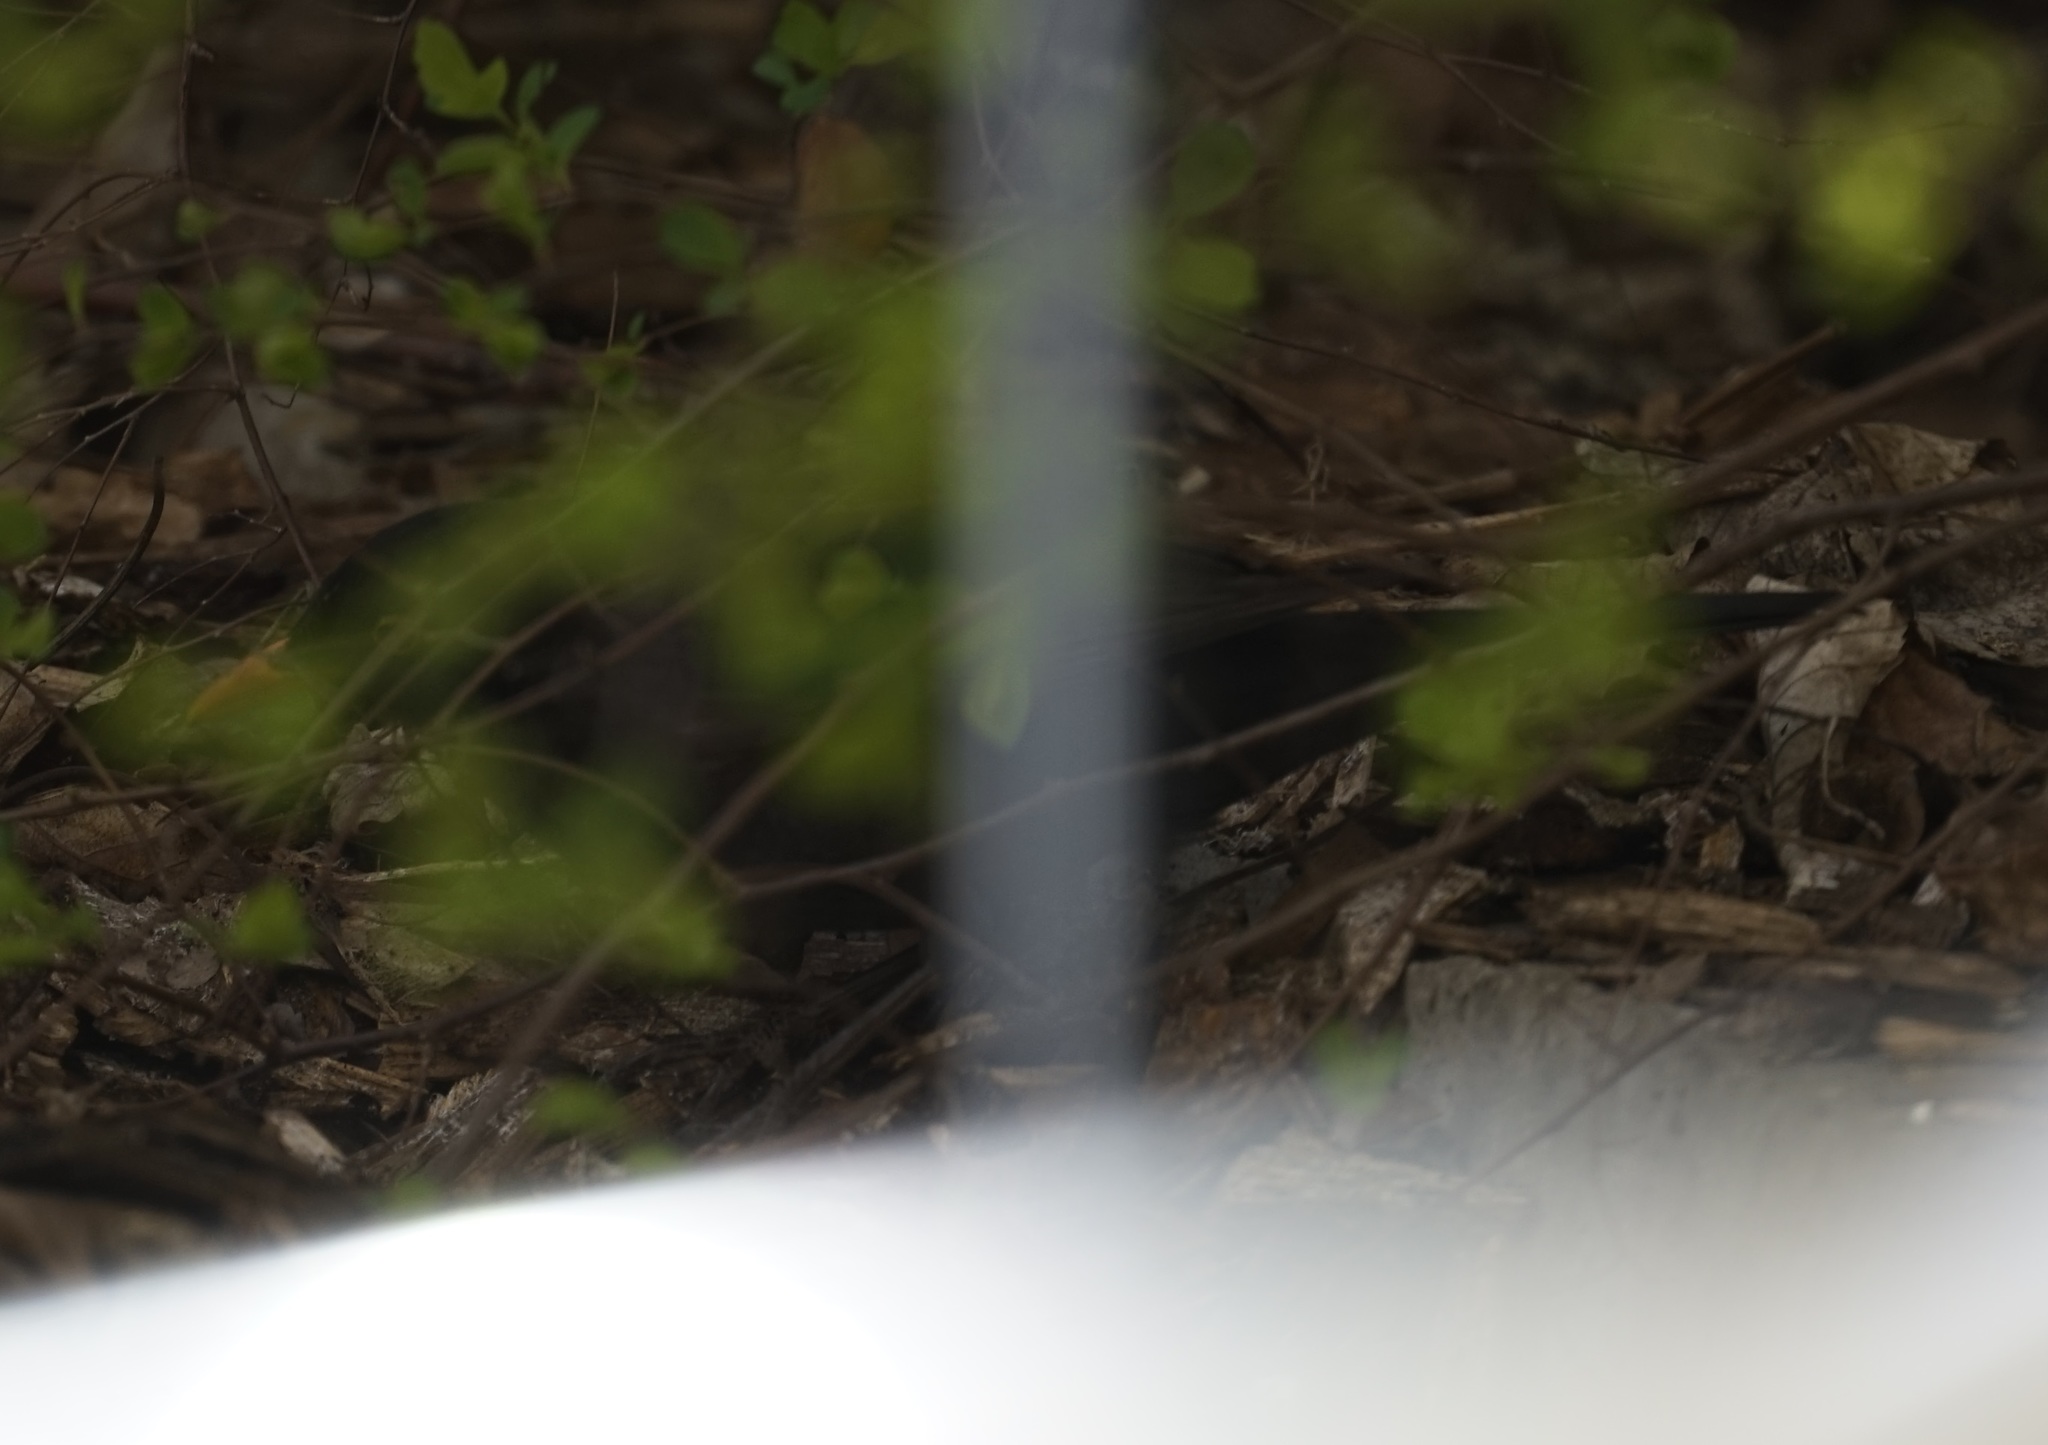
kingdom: Animalia
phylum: Chordata
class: Aves
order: Passeriformes
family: Turdidae
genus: Turdus
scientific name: Turdus merula
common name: Common blackbird
